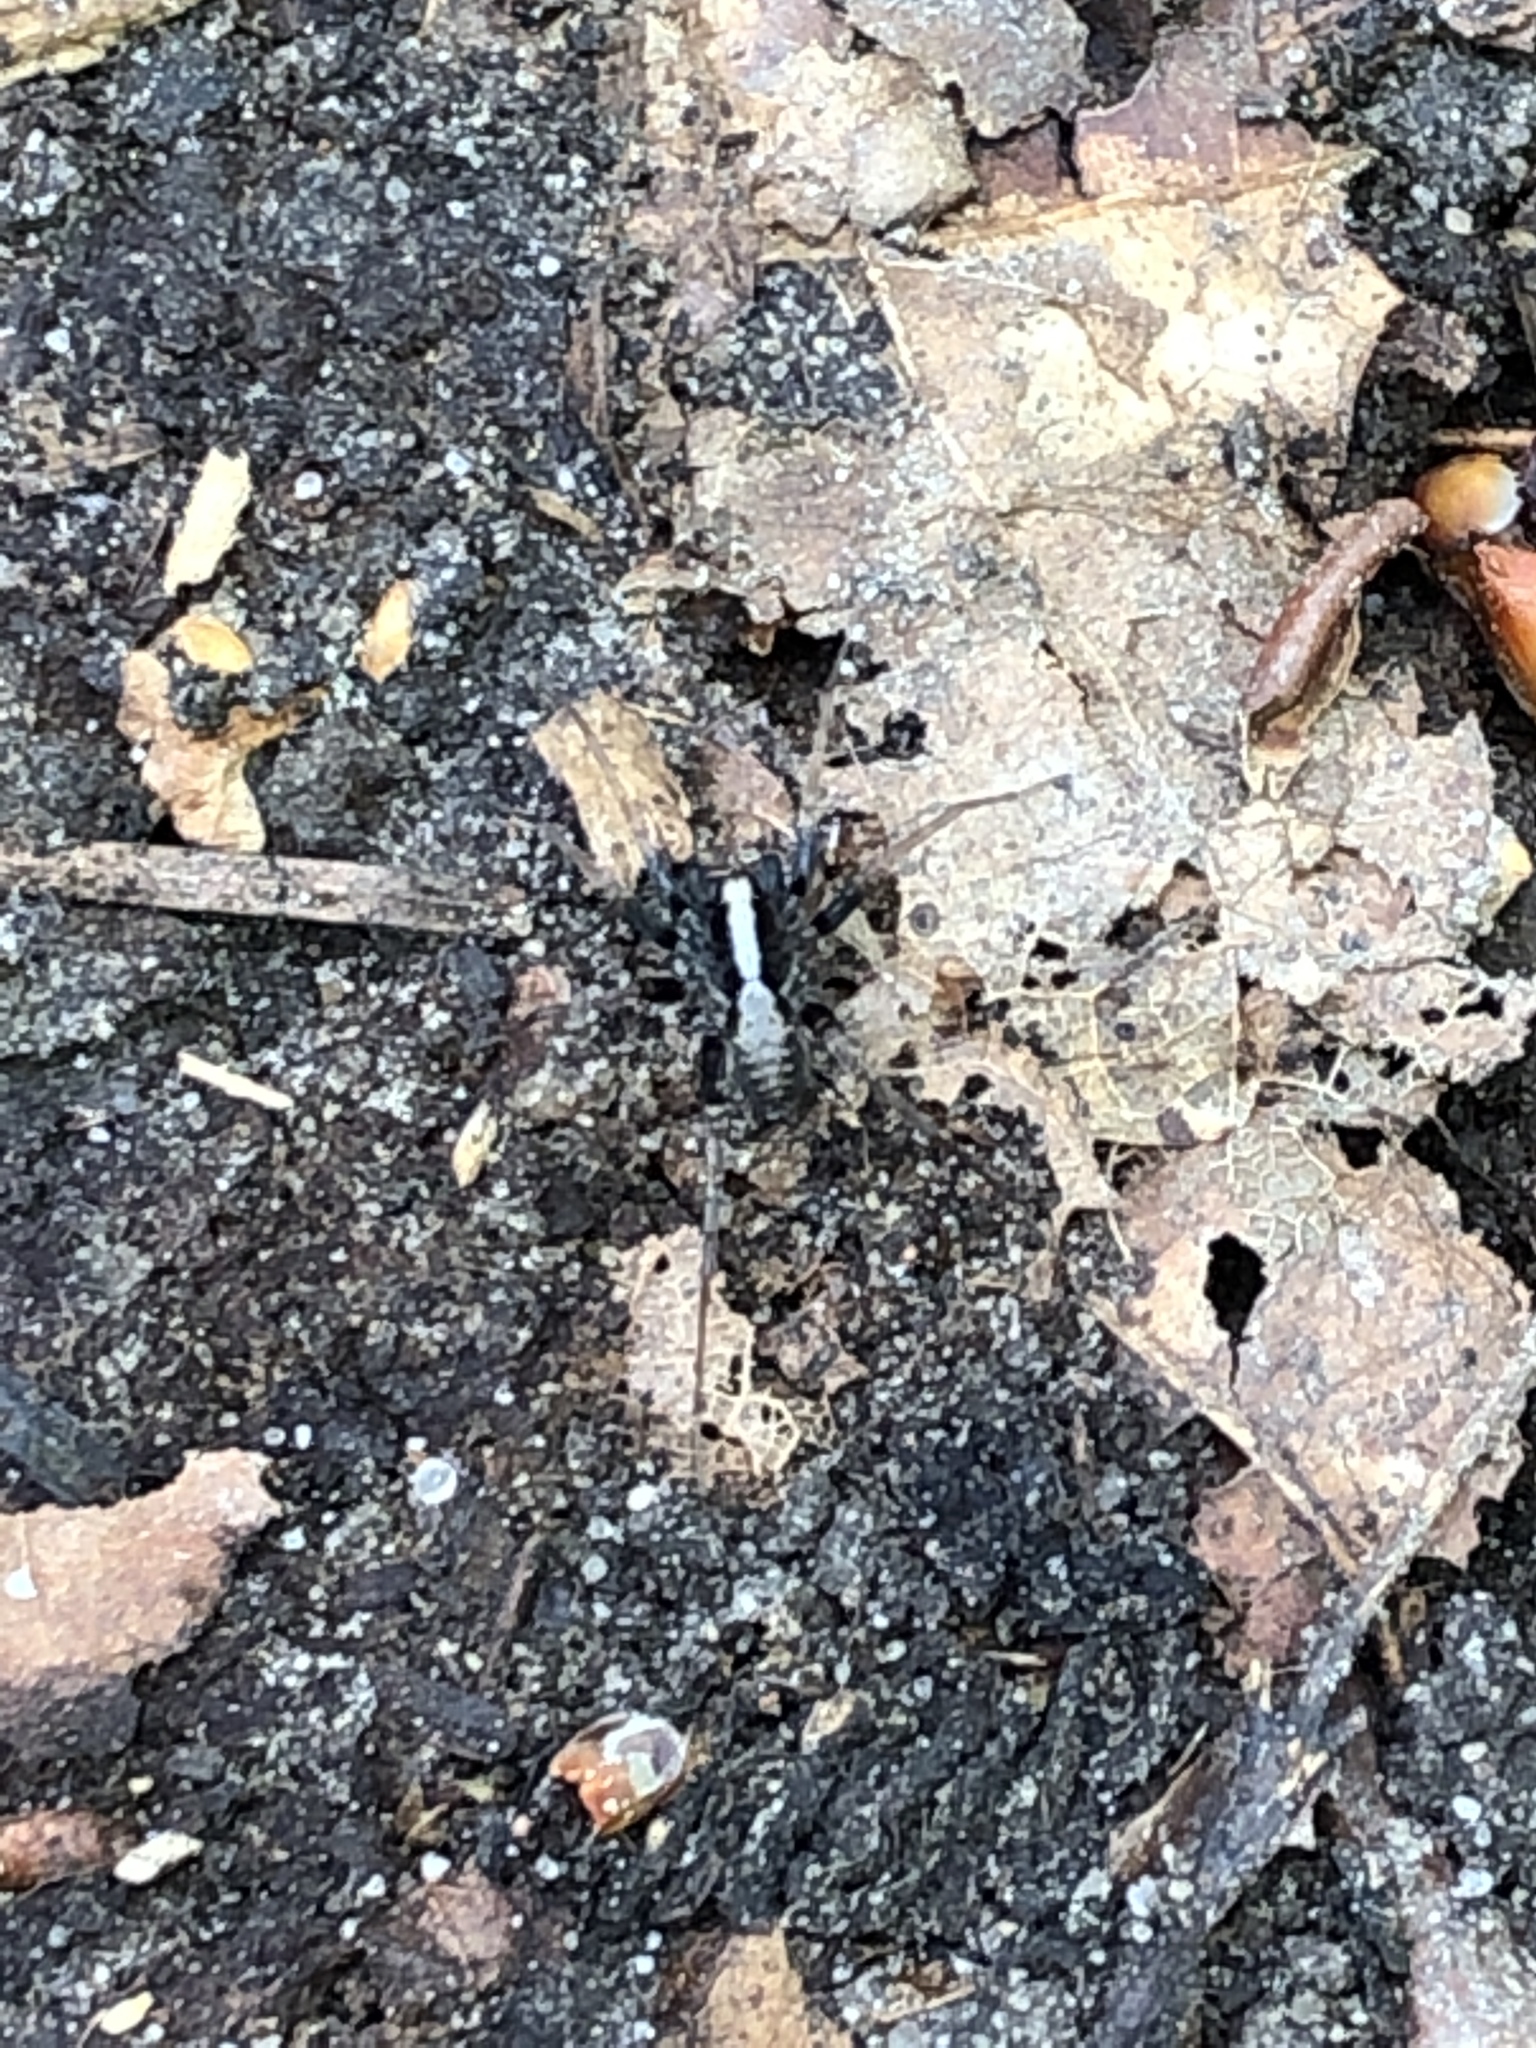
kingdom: Animalia
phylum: Arthropoda
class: Arachnida
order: Araneae
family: Lycosidae
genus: Pardosa
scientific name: Pardosa
